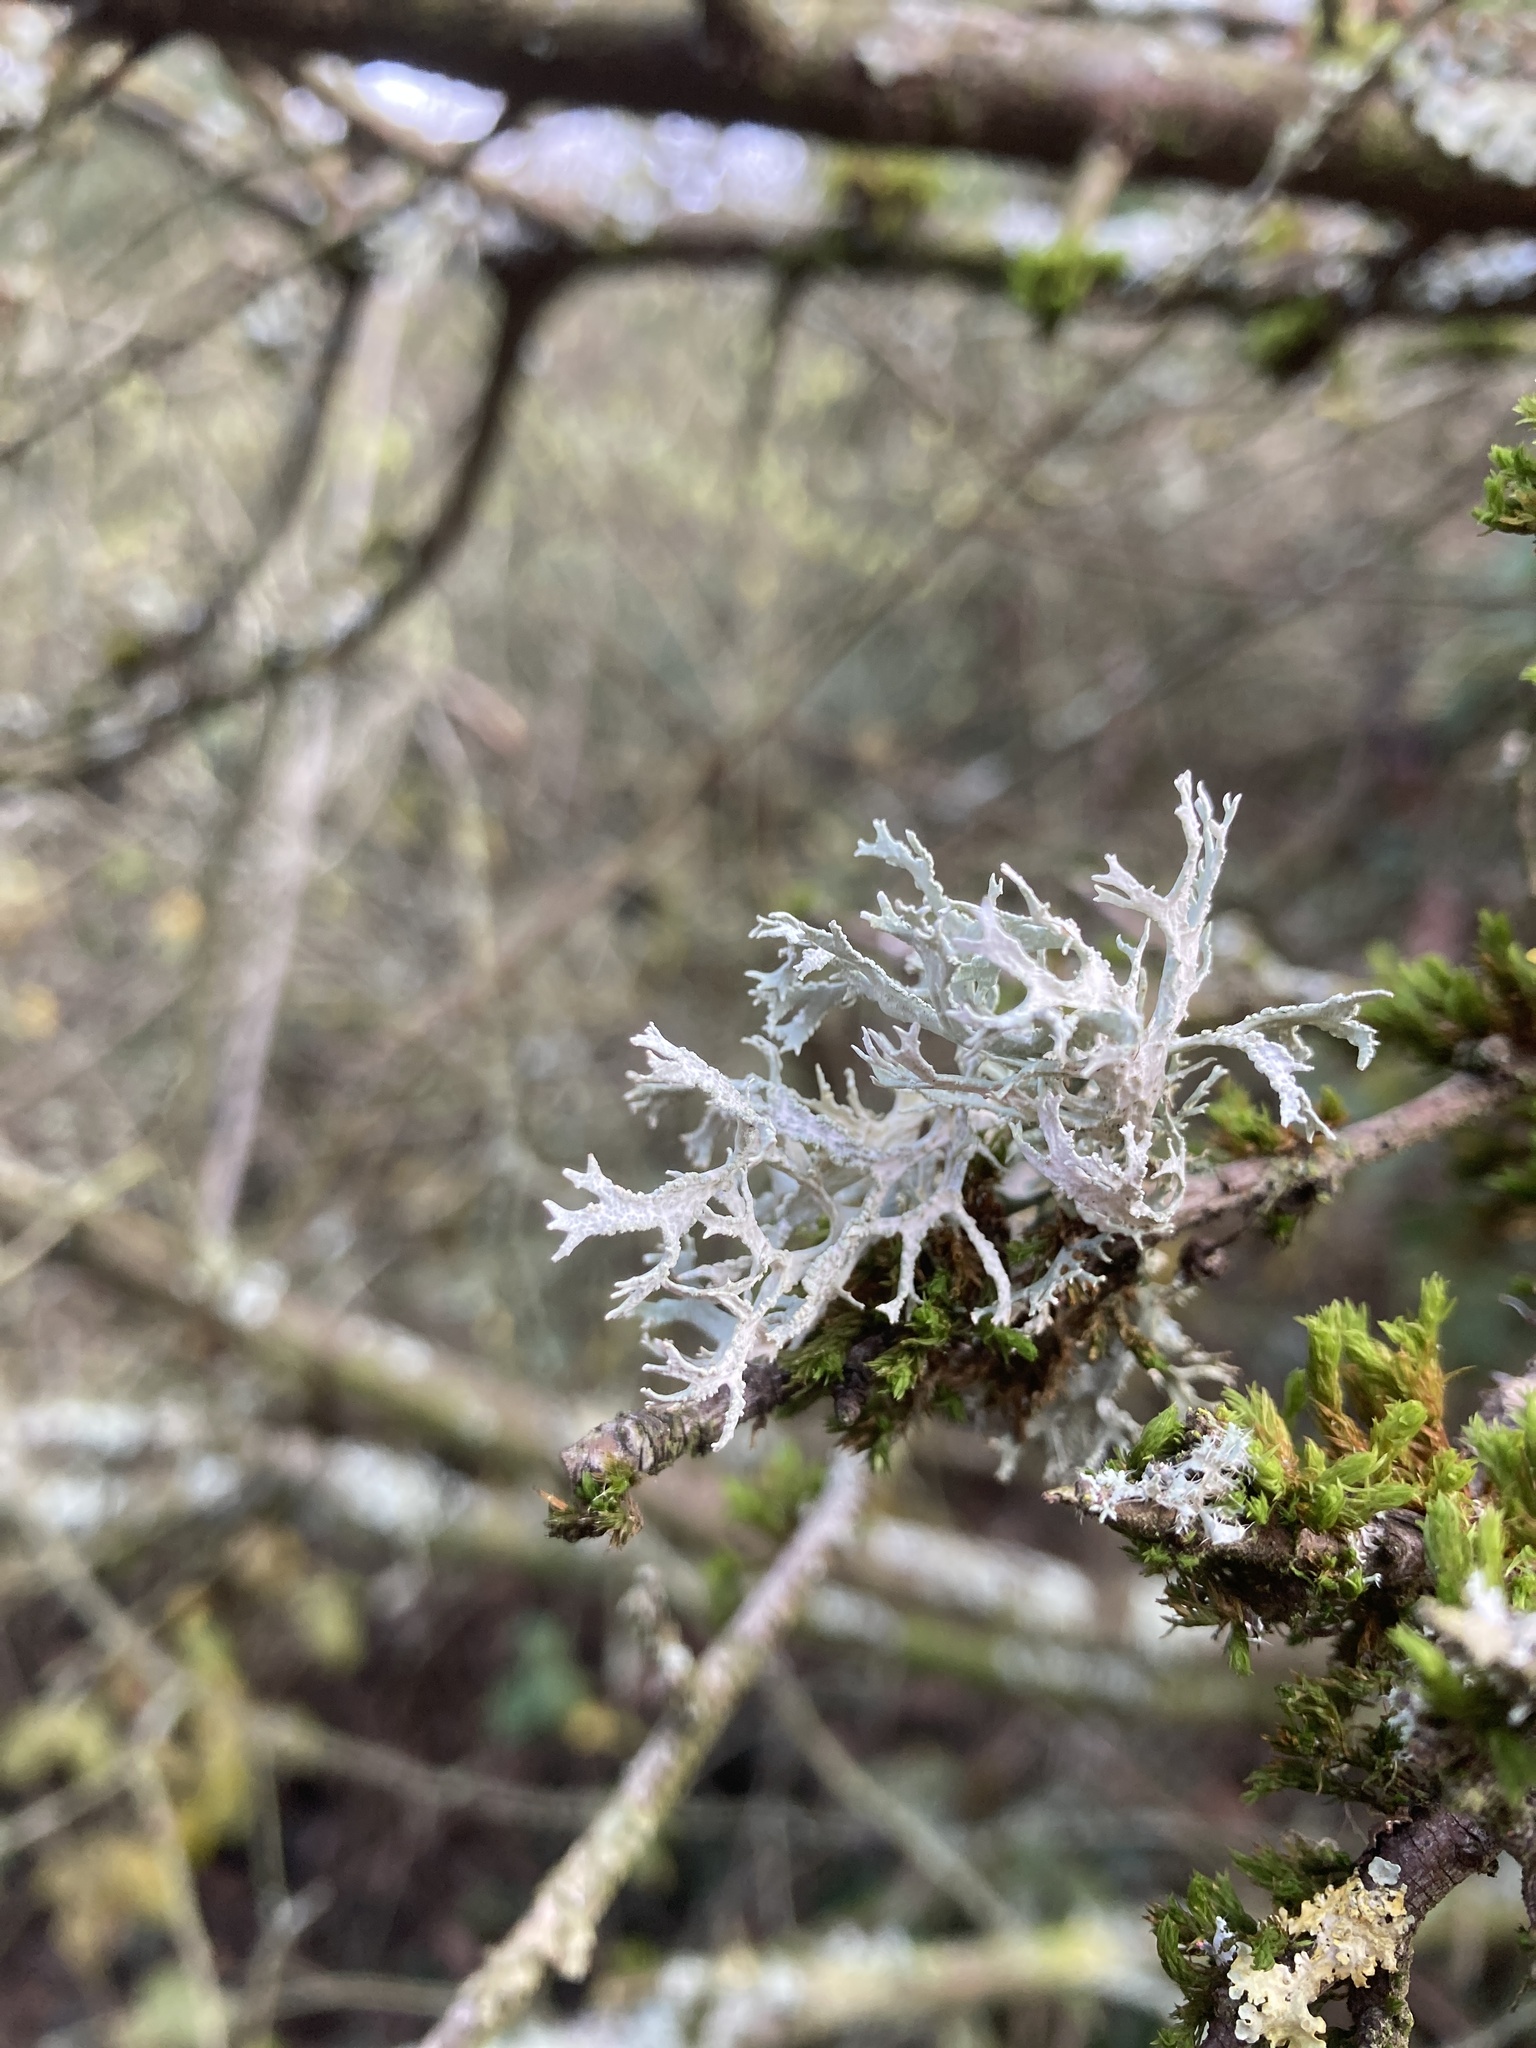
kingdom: Fungi
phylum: Ascomycota
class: Lecanoromycetes
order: Lecanorales
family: Parmeliaceae
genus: Evernia
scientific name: Evernia prunastri
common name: Oak moss
